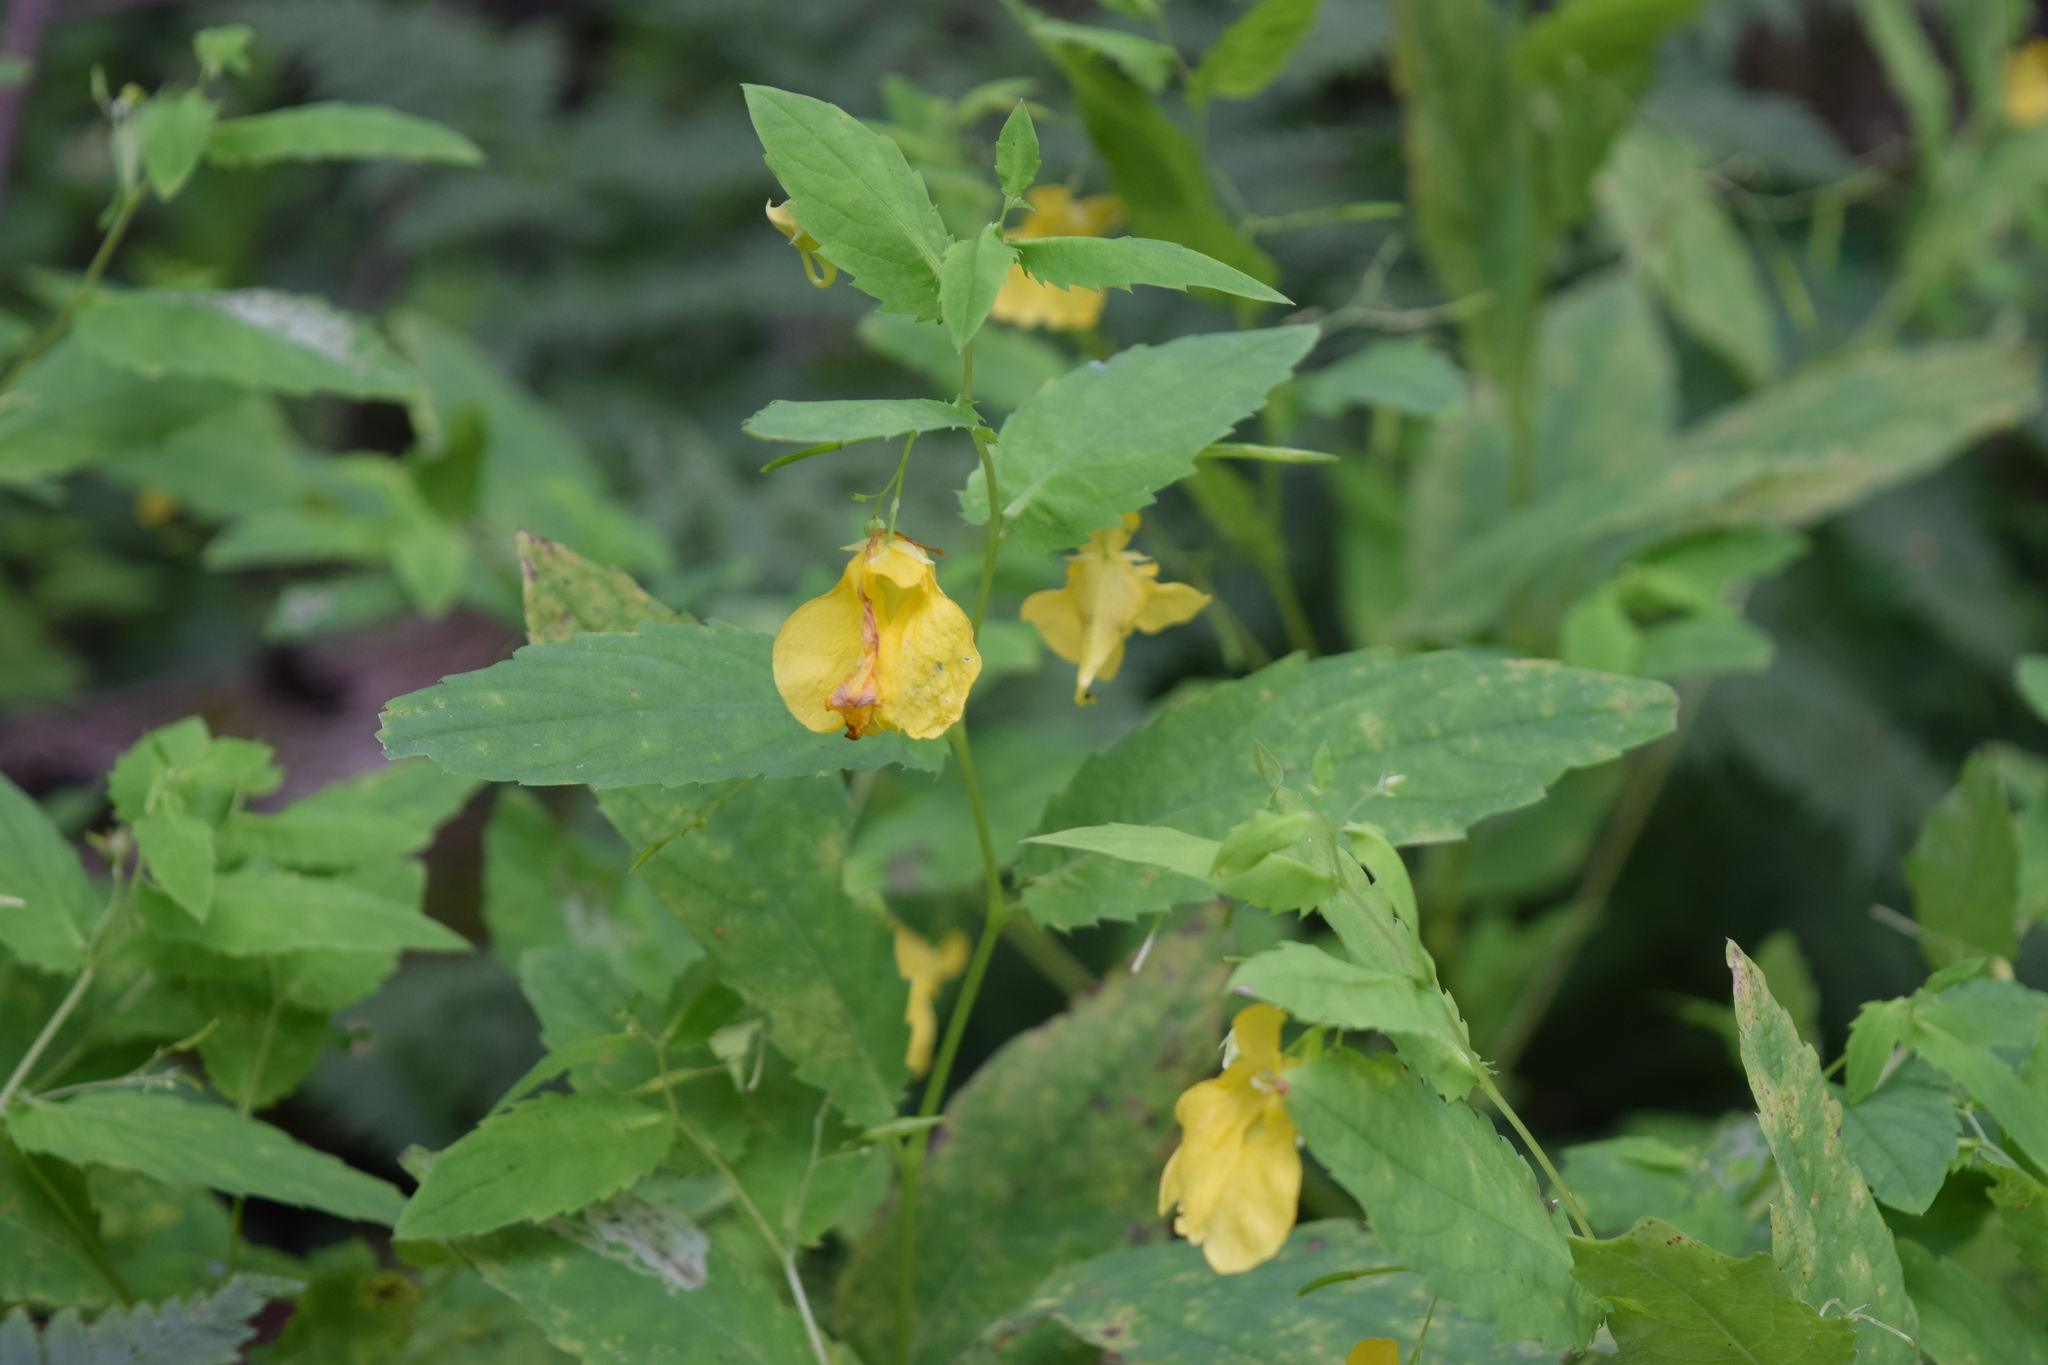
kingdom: Plantae
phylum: Tracheophyta
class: Magnoliopsida
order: Ericales
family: Balsaminaceae
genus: Impatiens
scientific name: Impatiens noli-tangere
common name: Touch-me-not balsam
